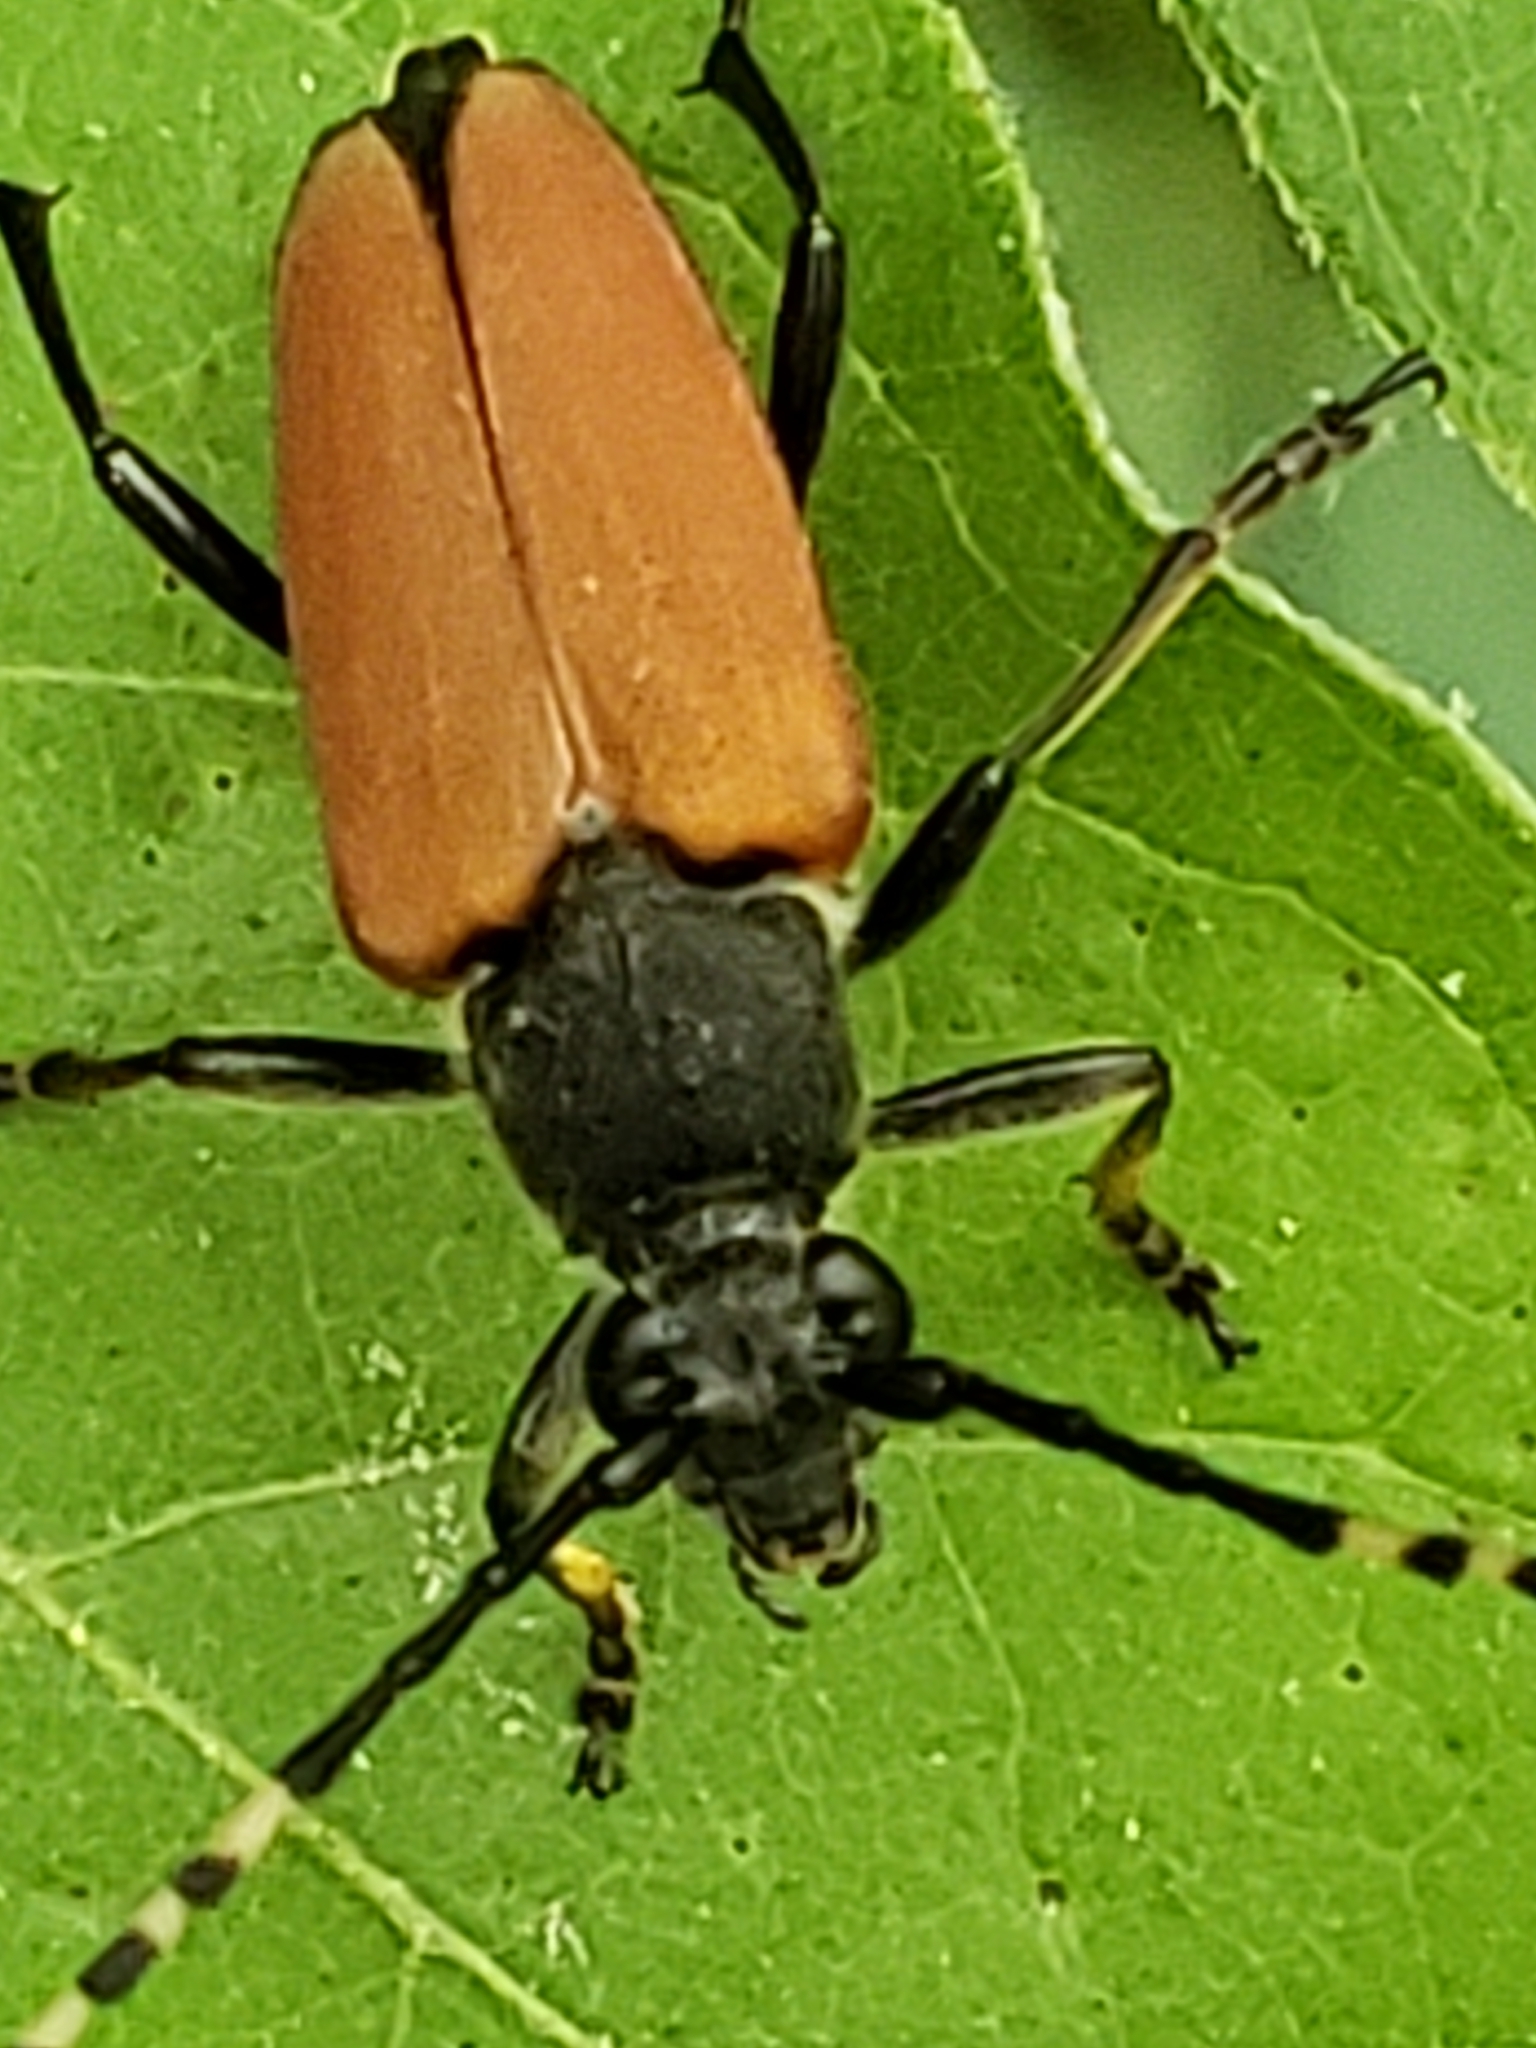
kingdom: Animalia
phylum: Arthropoda
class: Insecta
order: Coleoptera
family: Cerambycidae
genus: Brachyleptura
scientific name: Brachyleptura rubrica
